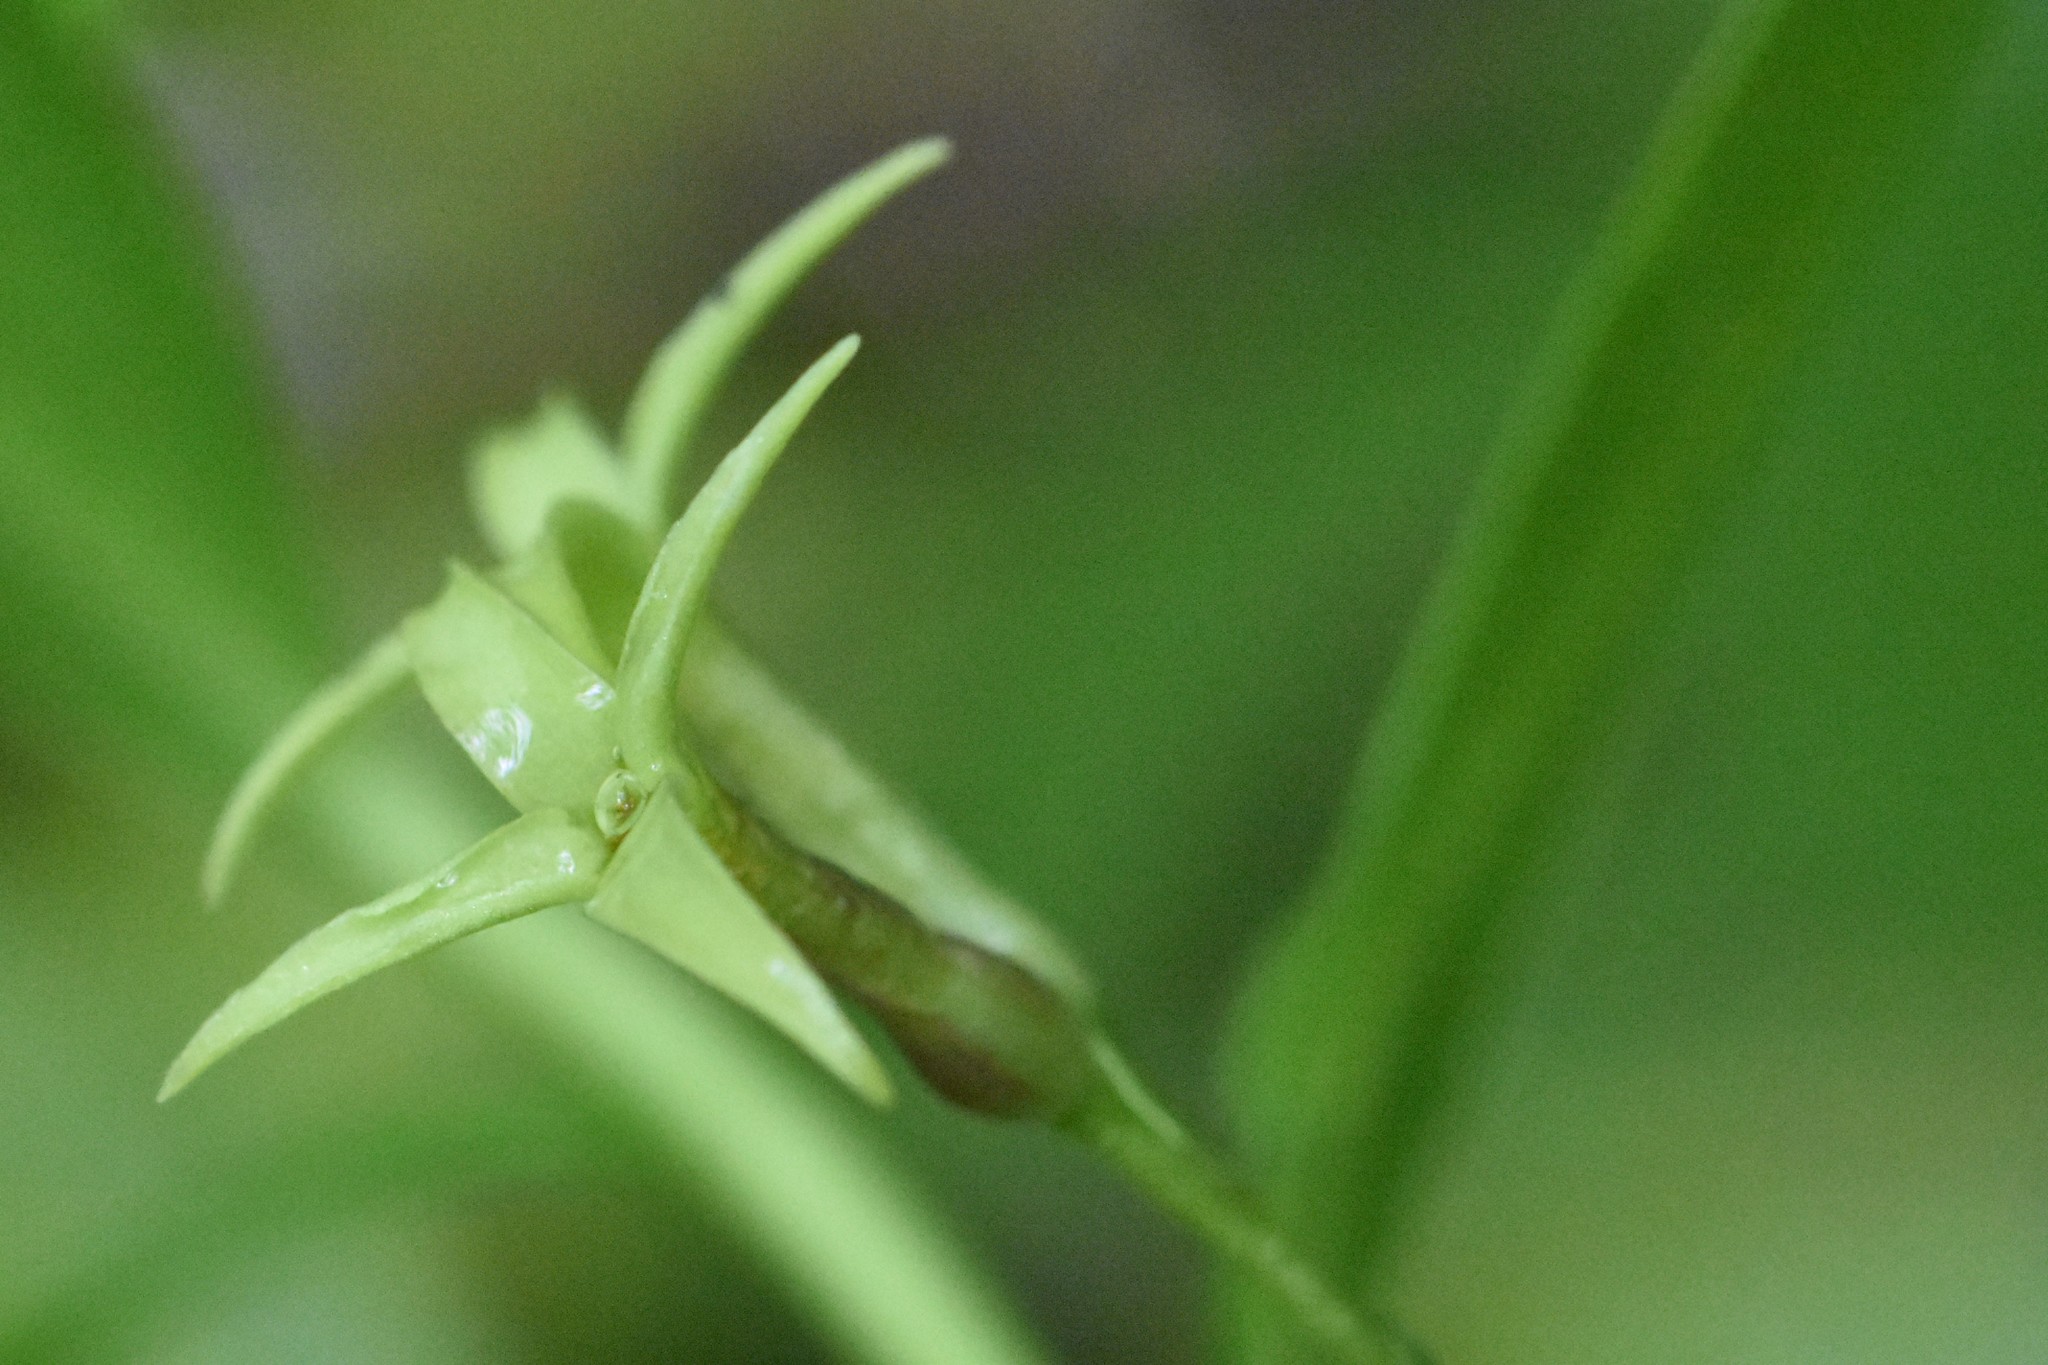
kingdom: Plantae
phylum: Tracheophyta
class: Magnoliopsida
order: Malvales
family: Thymelaeaceae
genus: Daphne
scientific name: Daphne pontica
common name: Twin-flower daphne
